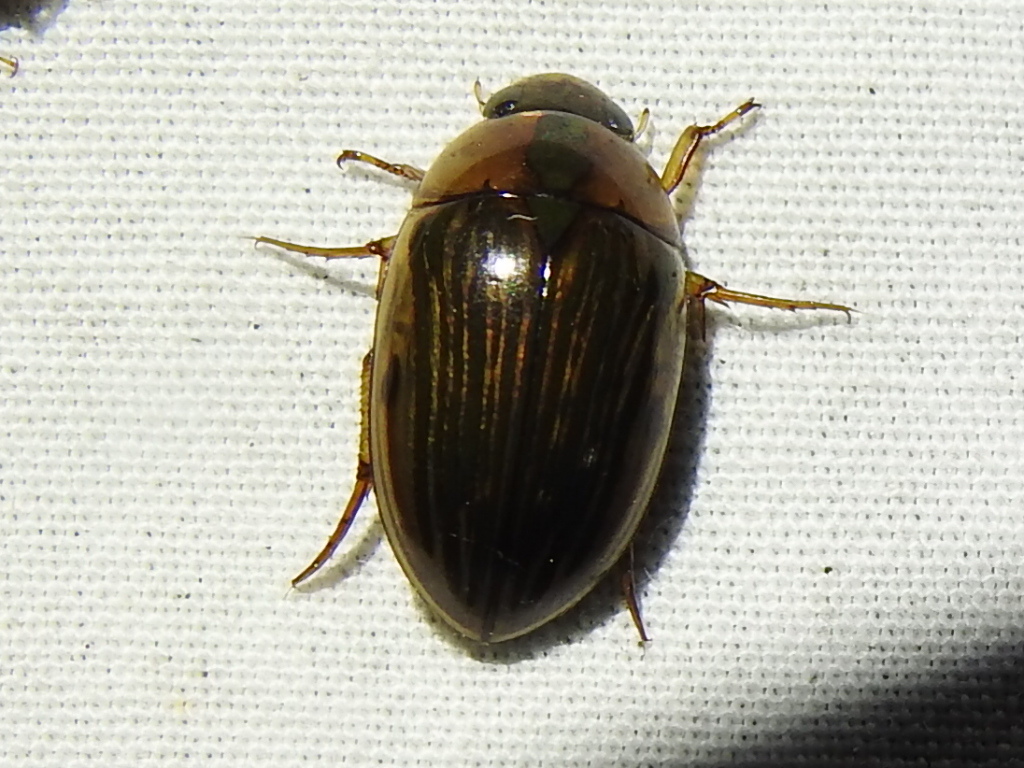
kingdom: Animalia
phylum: Arthropoda
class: Insecta
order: Coleoptera
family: Hydrophilidae
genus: Tropisternus
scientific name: Tropisternus collaris
